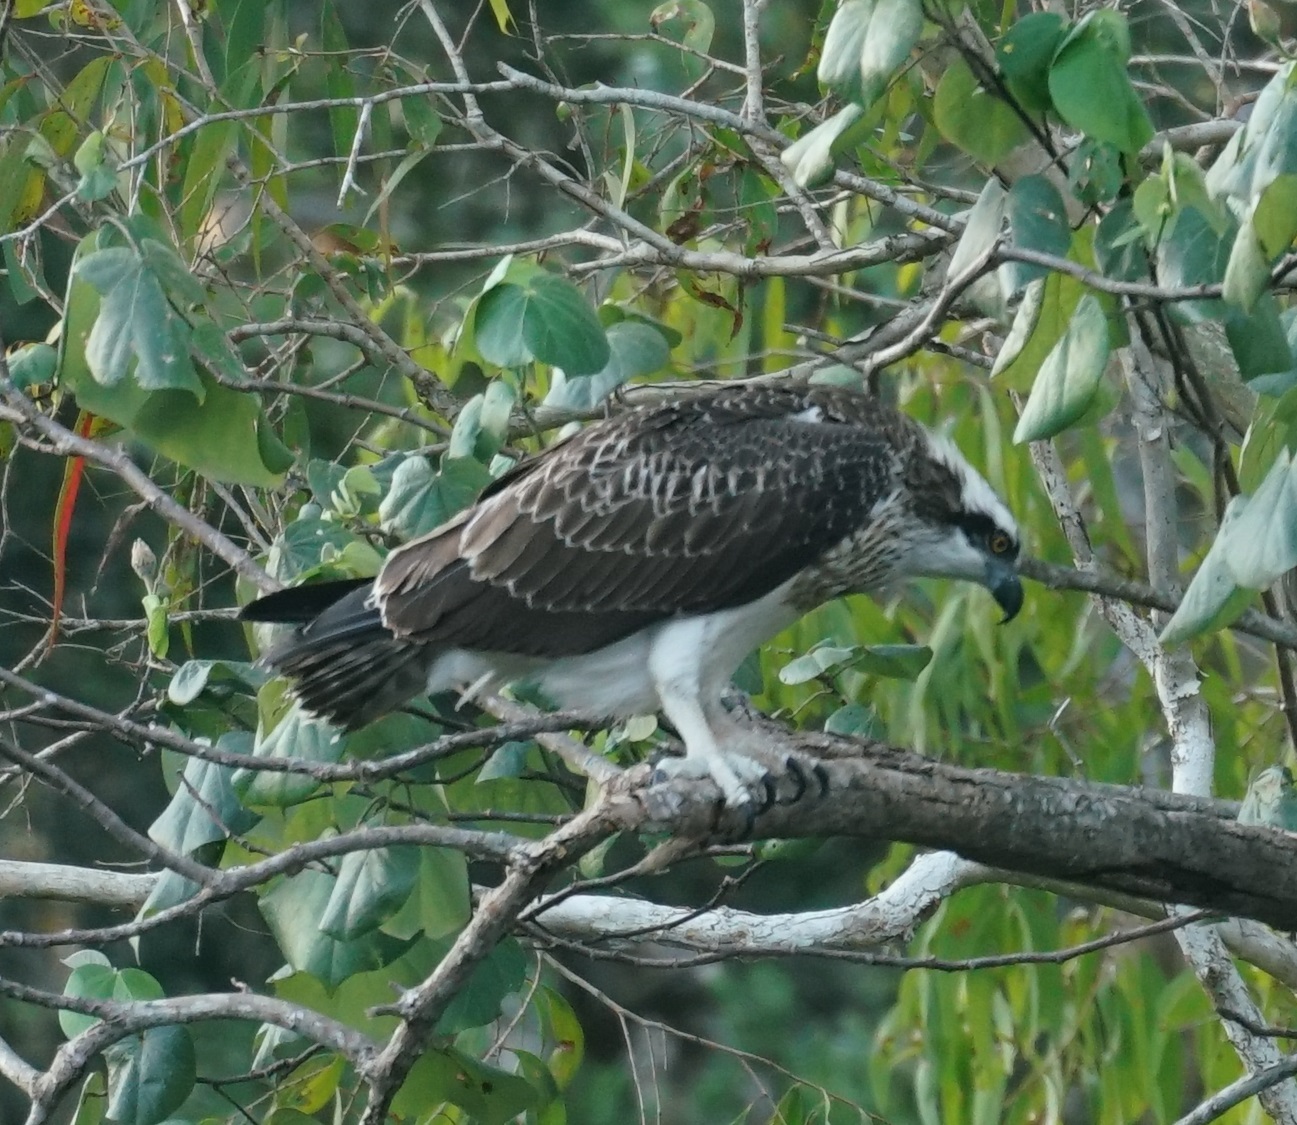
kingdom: Animalia
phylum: Chordata
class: Aves
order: Accipitriformes
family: Pandionidae
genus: Pandion
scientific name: Pandion haliaetus
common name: Osprey
